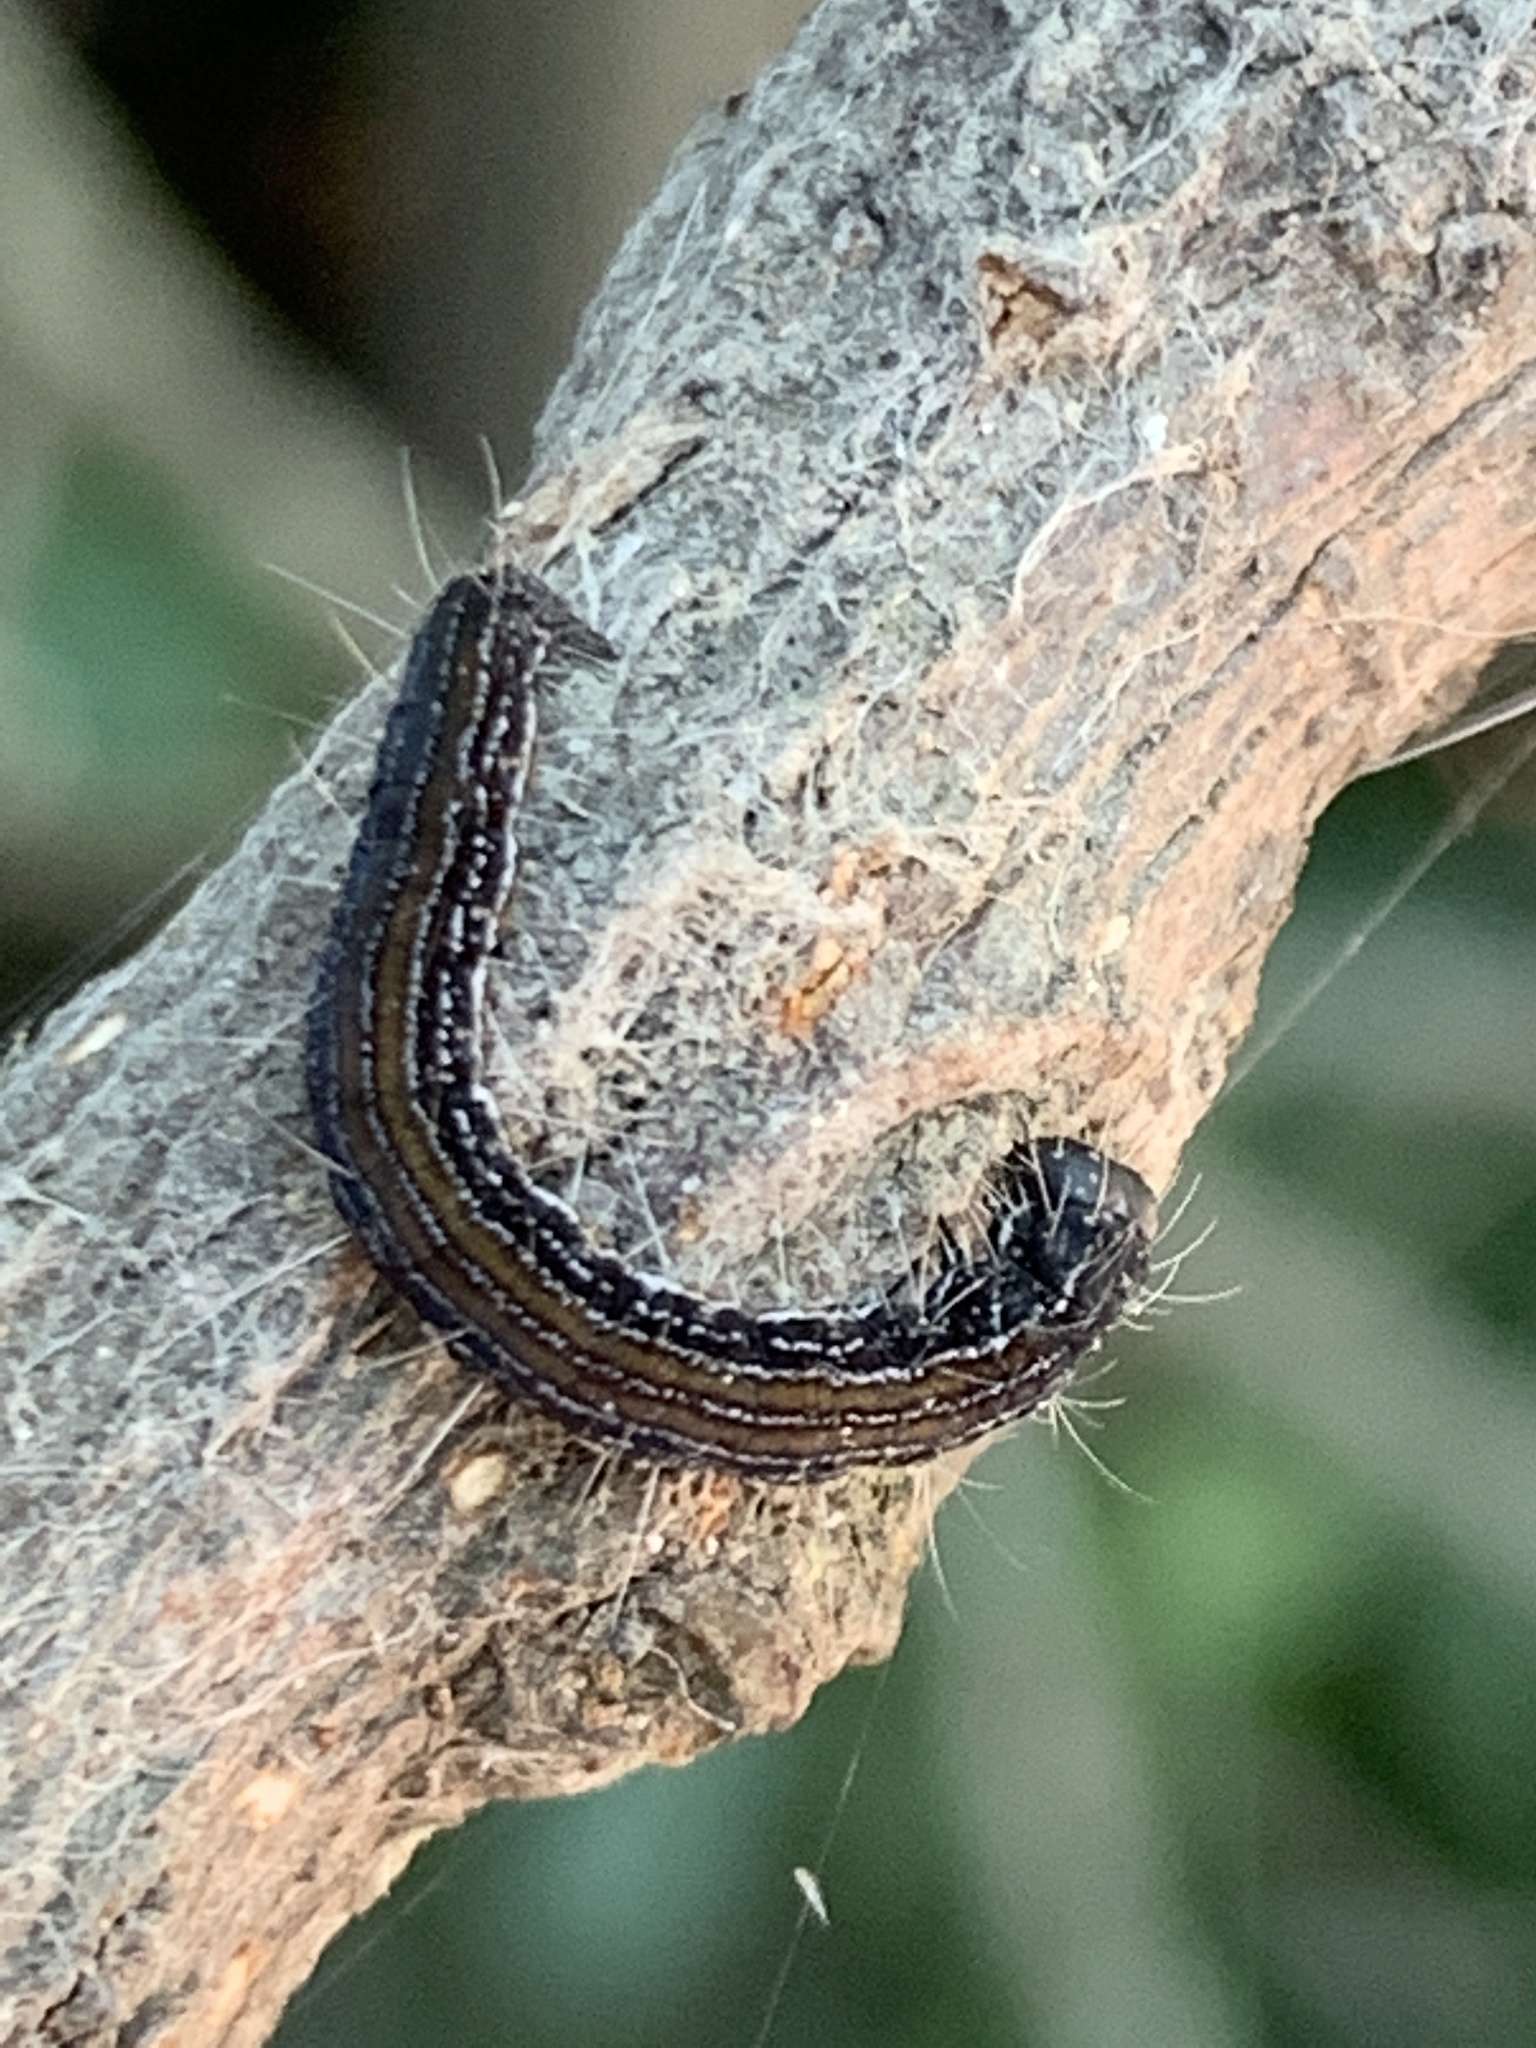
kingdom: Animalia
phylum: Arthropoda
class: Insecta
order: Lepidoptera
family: Attevidae
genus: Atteva
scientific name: Atteva punctella
